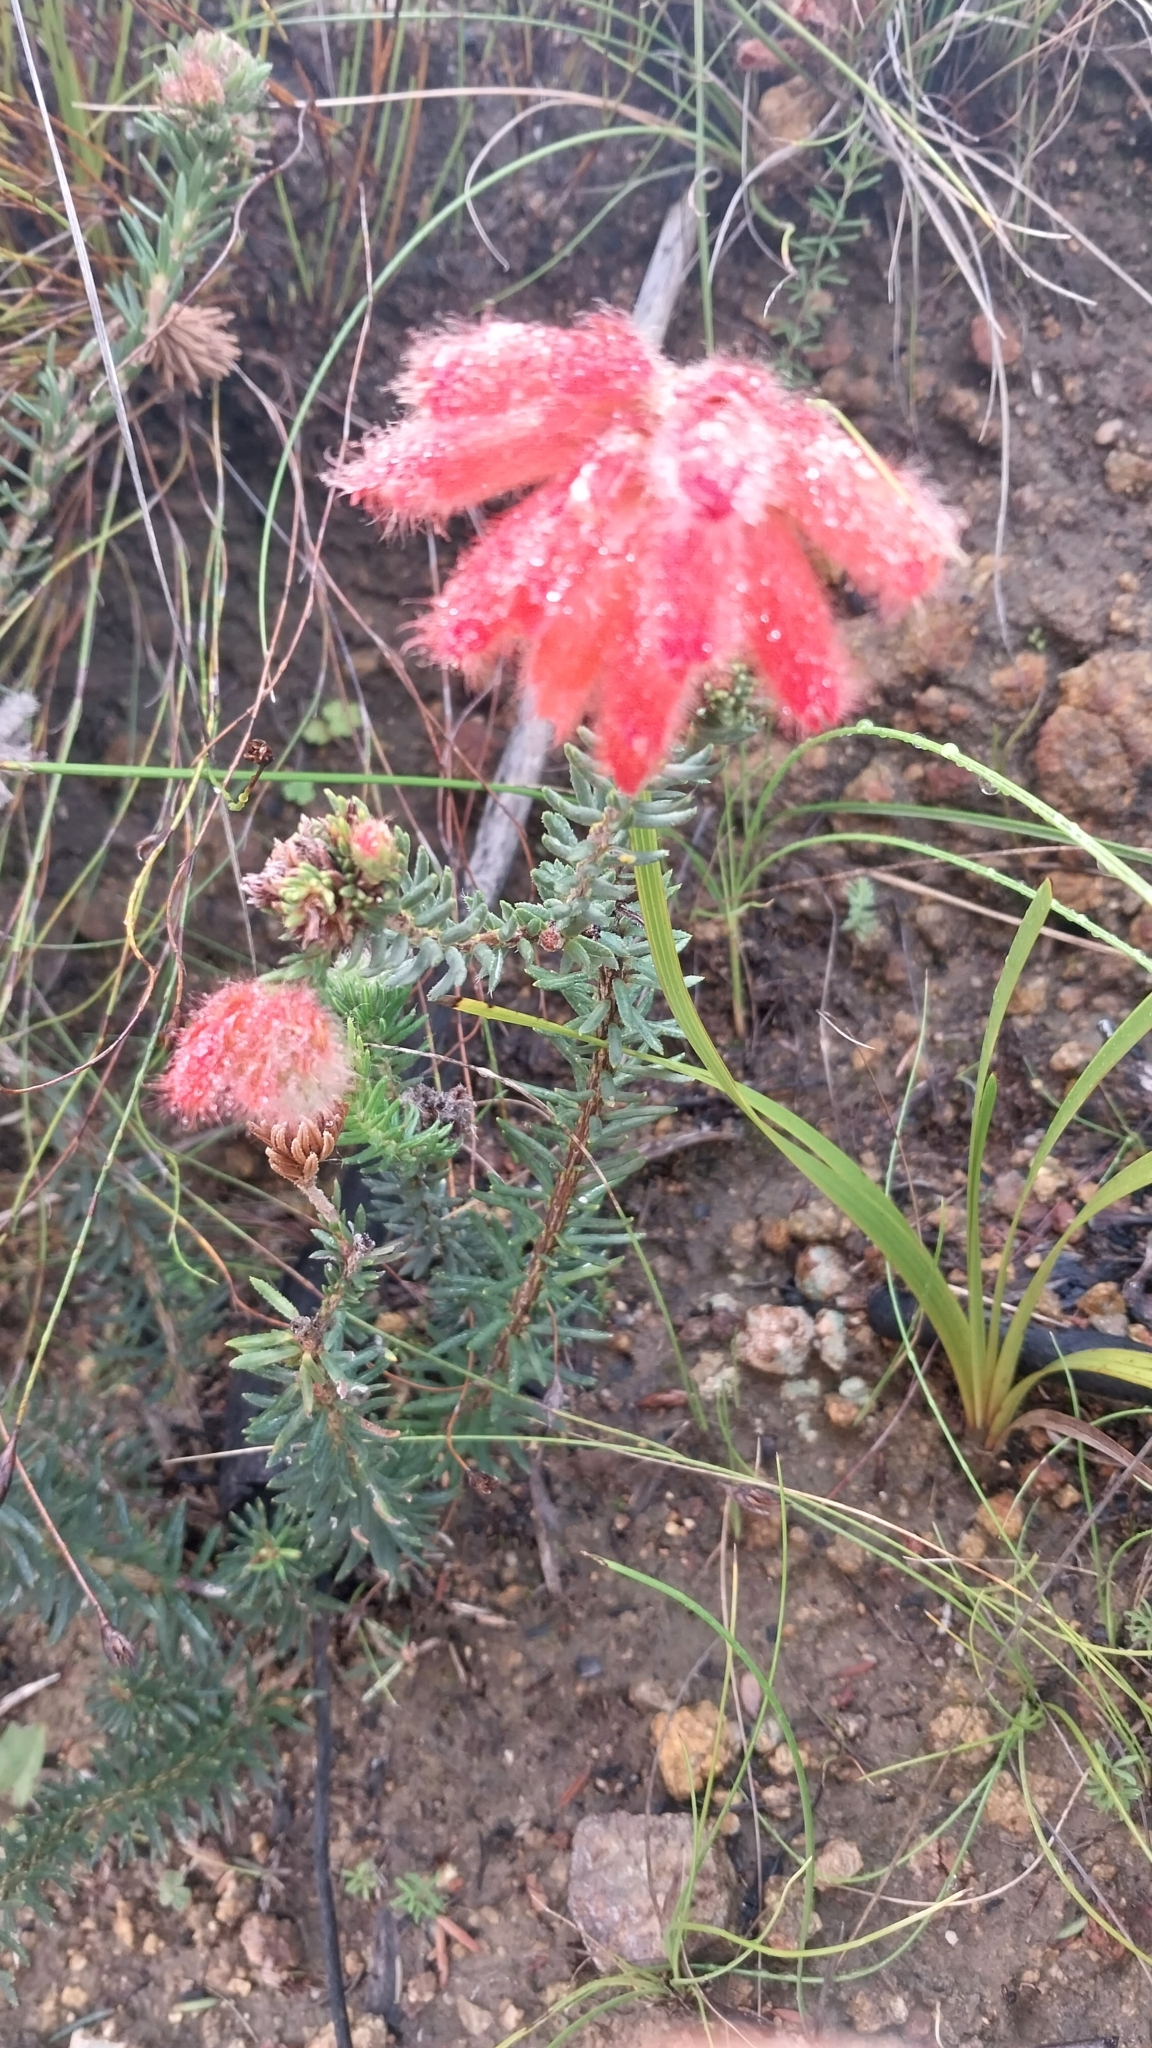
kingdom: Plantae
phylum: Tracheophyta
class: Magnoliopsida
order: Ericales
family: Ericaceae
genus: Erica
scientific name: Erica cerinthoides
